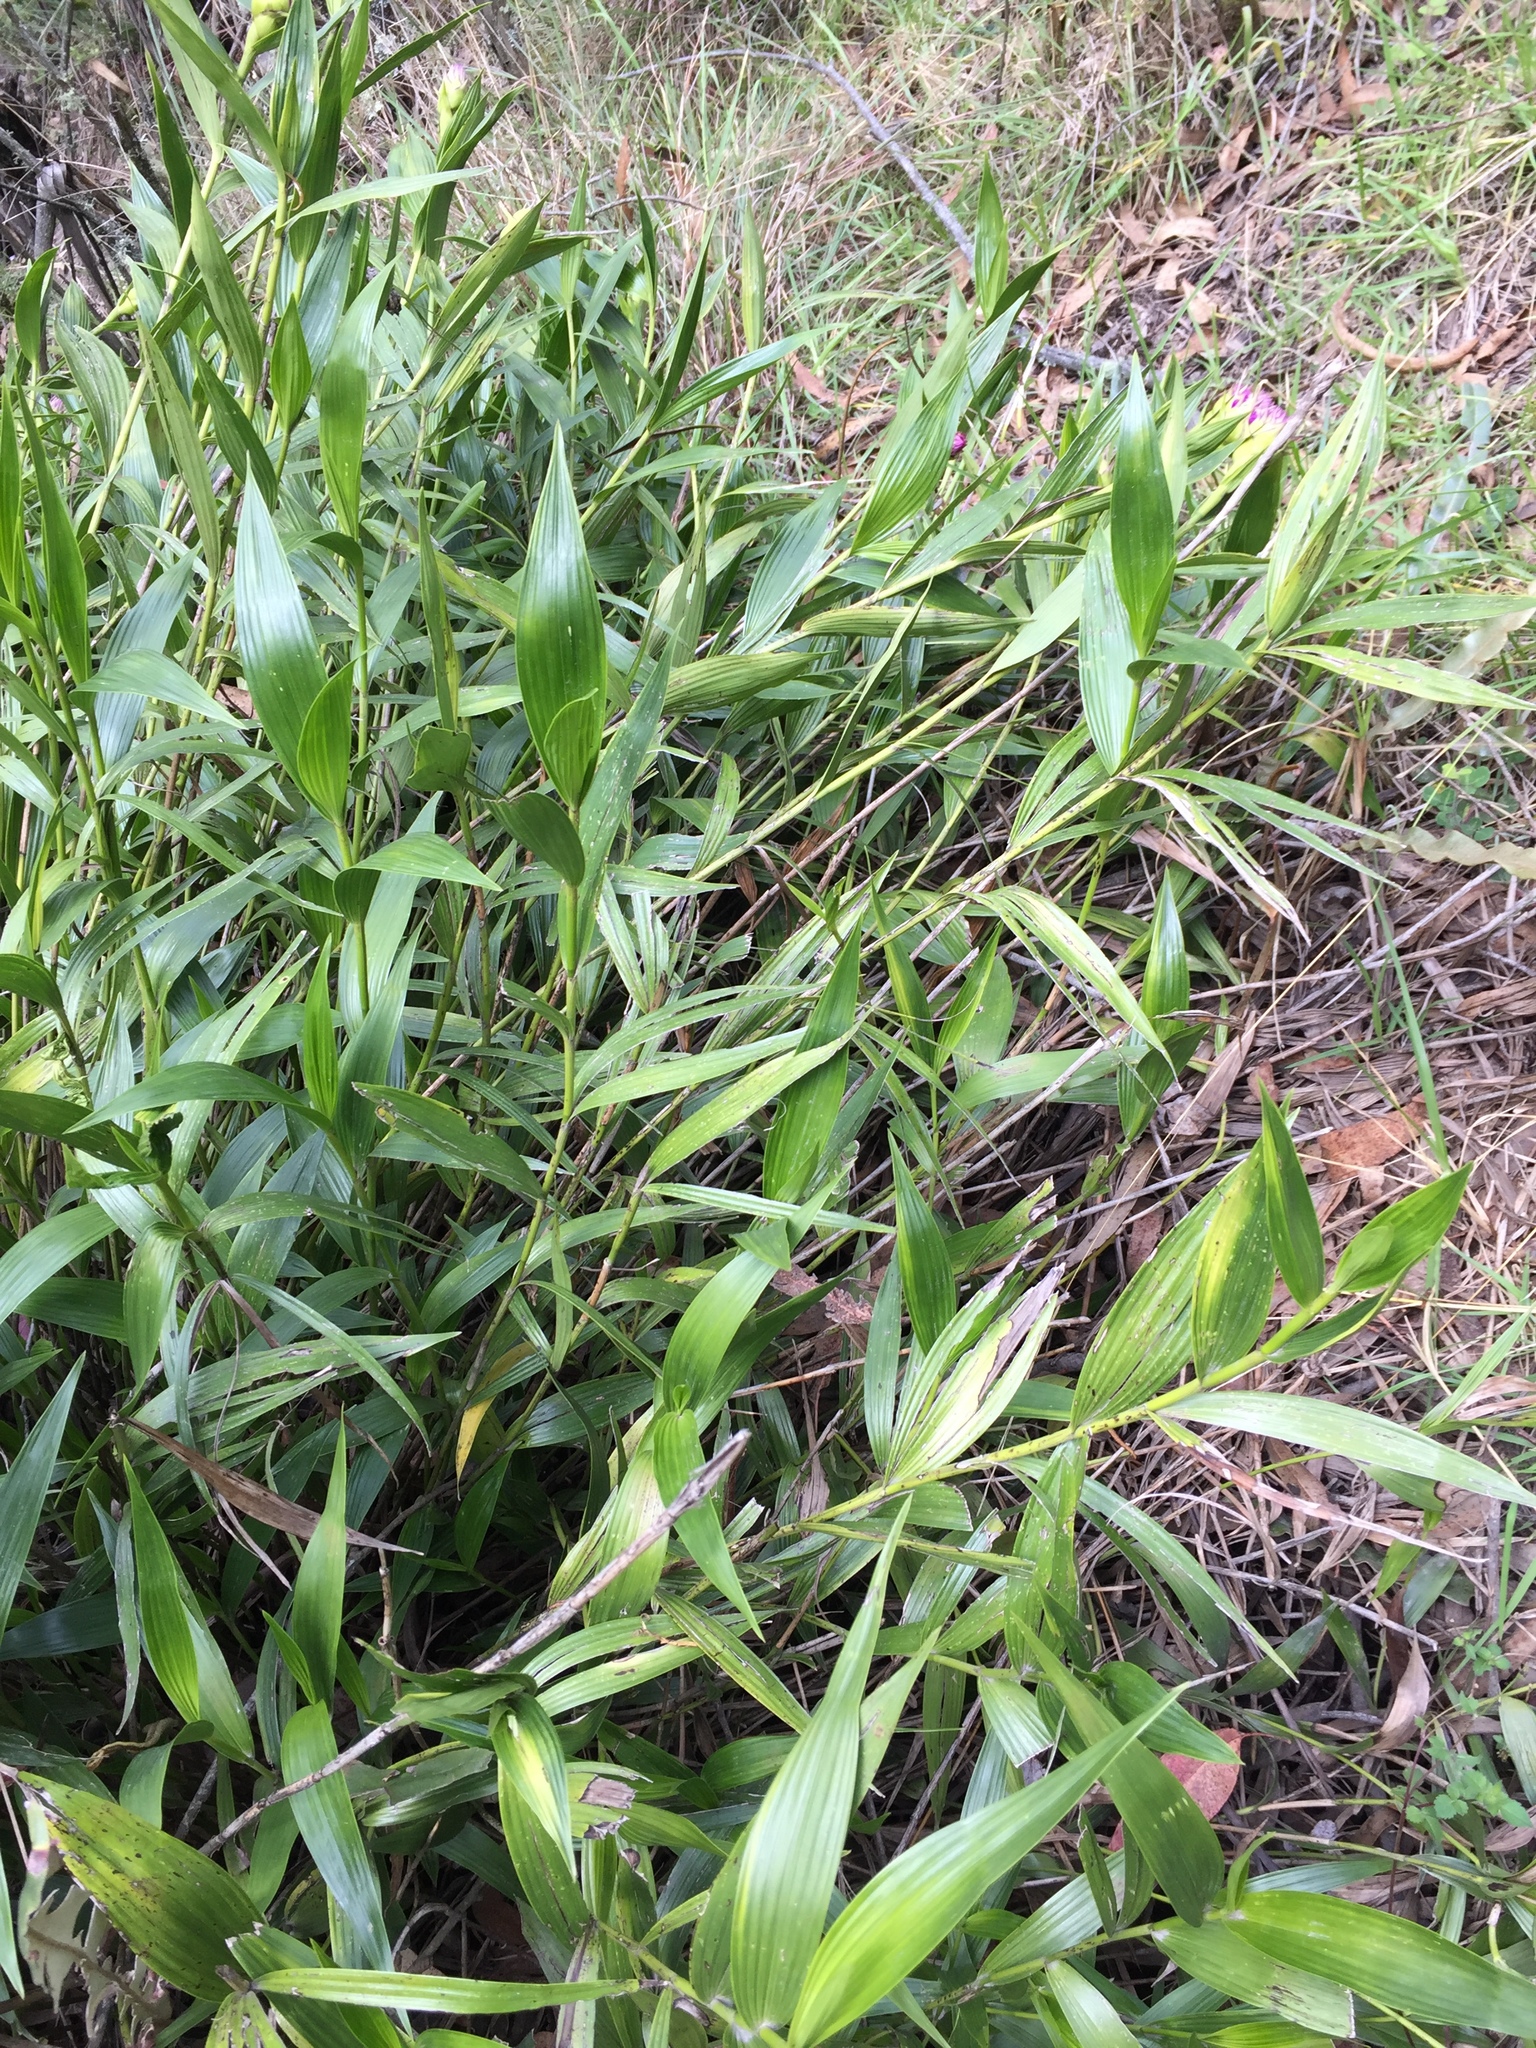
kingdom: Plantae
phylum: Tracheophyta
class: Liliopsida
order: Asparagales
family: Orchidaceae
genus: Elleanthus
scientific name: Elleanthus capitatus
